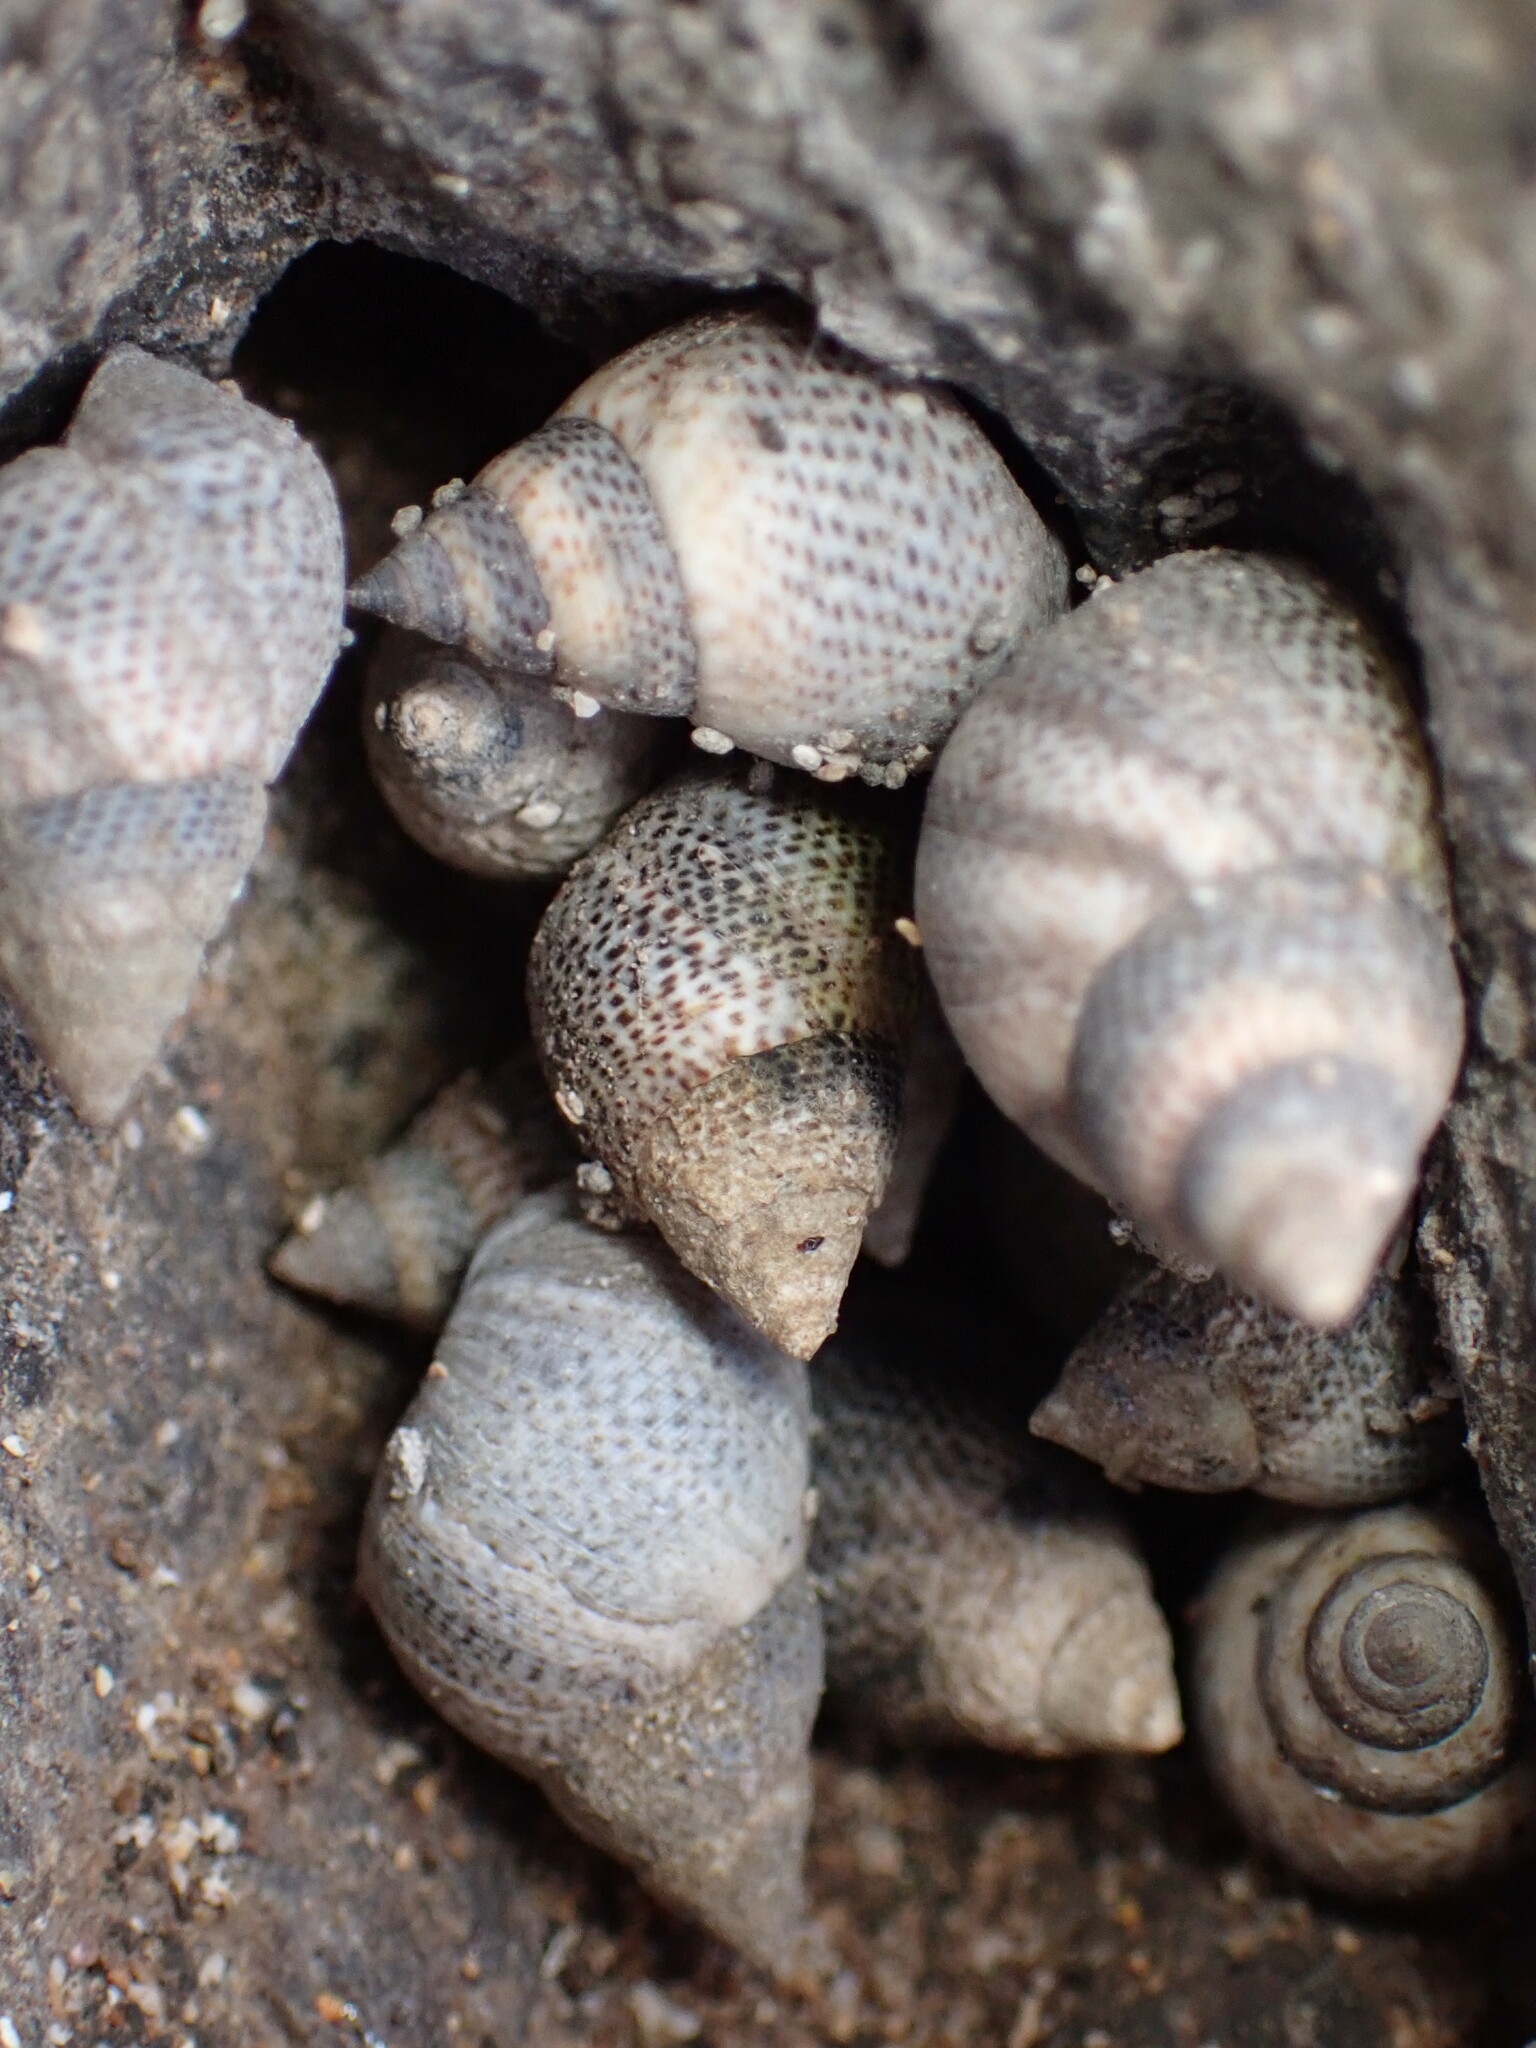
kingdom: Animalia
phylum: Mollusca
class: Gastropoda
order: Littorinimorpha
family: Littorinidae
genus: Littoraria
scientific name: Littoraria pintado
